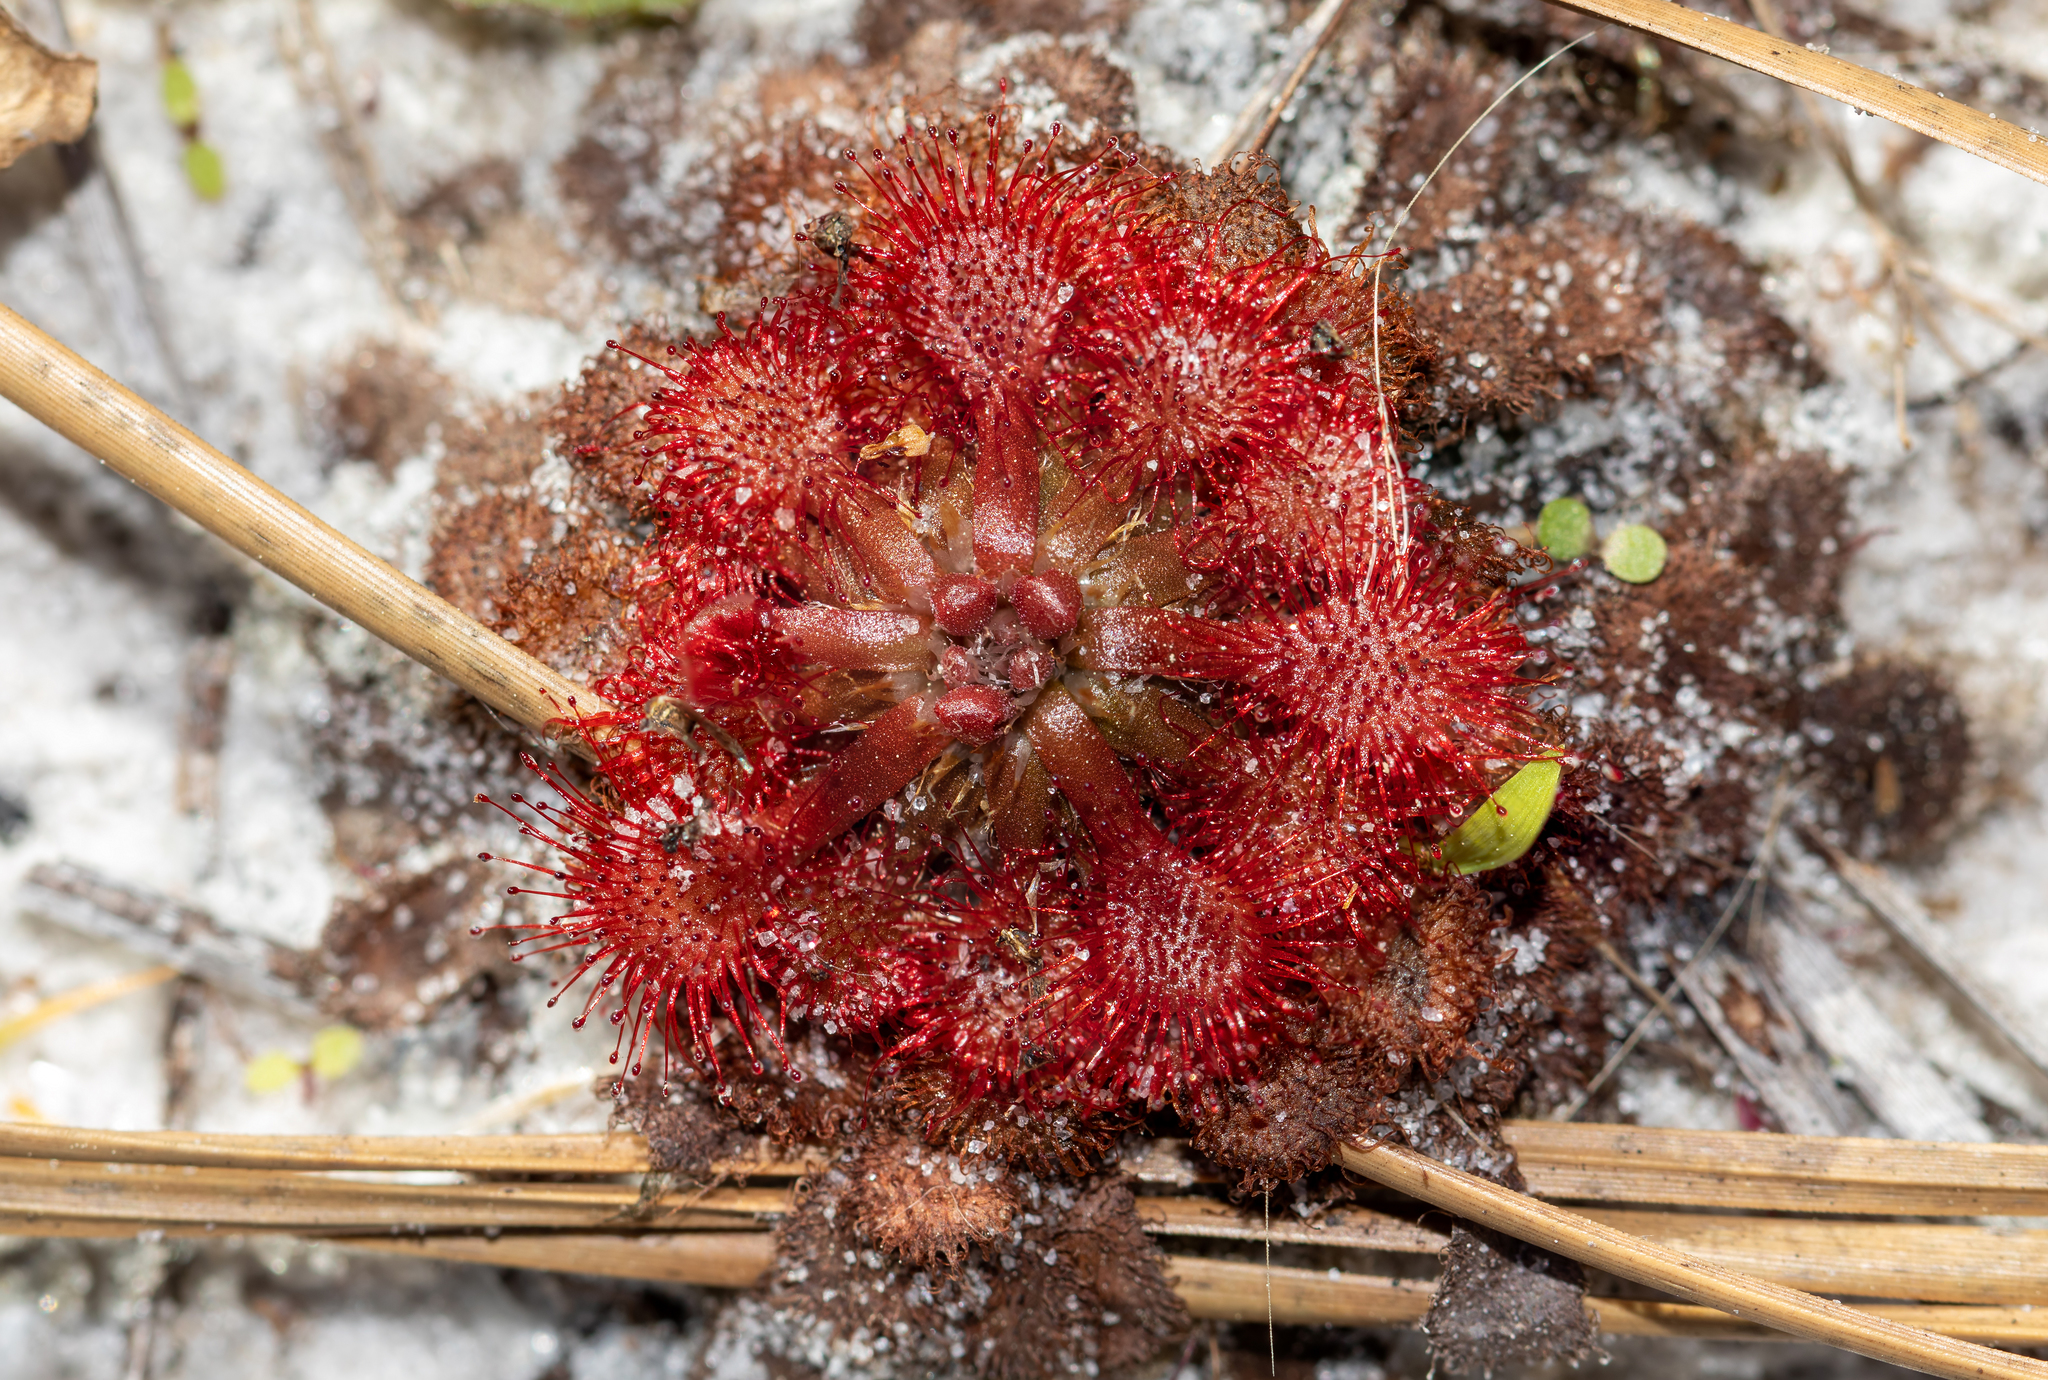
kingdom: Plantae
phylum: Tracheophyta
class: Magnoliopsida
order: Caryophyllales
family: Droseraceae
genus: Drosera
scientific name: Drosera capillaris
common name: Pink sundew
